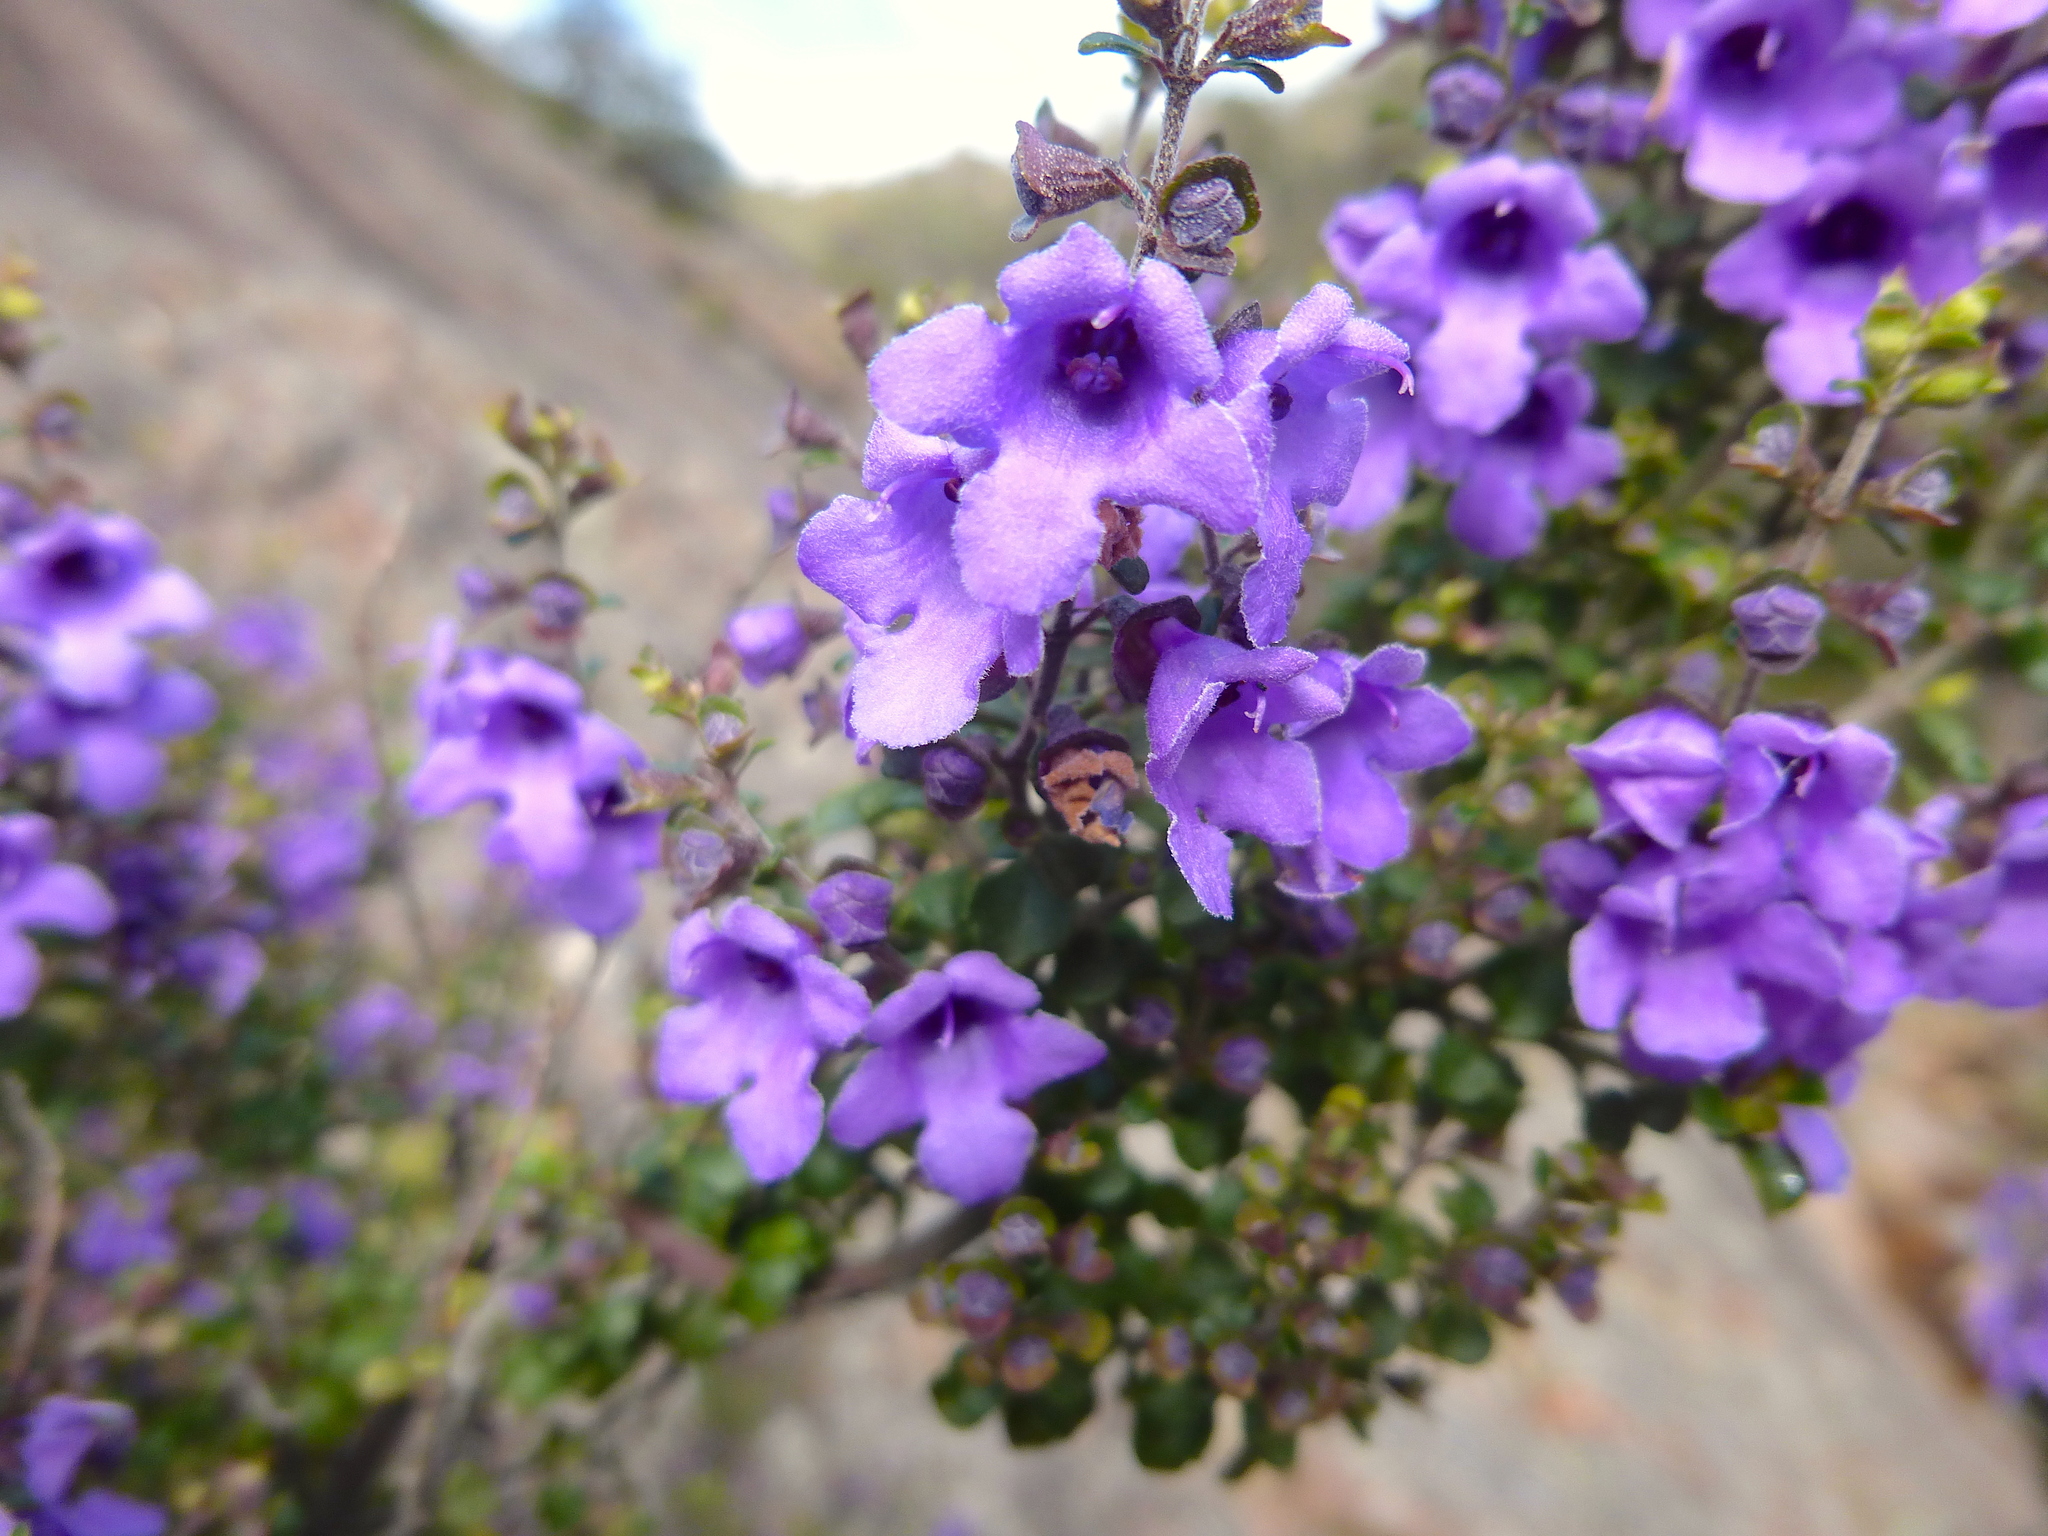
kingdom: Plantae
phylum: Tracheophyta
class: Magnoliopsida
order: Lamiales
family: Lamiaceae
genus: Prostanthera
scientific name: Prostanthera rotundifolia
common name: Round-leaf mintbush
